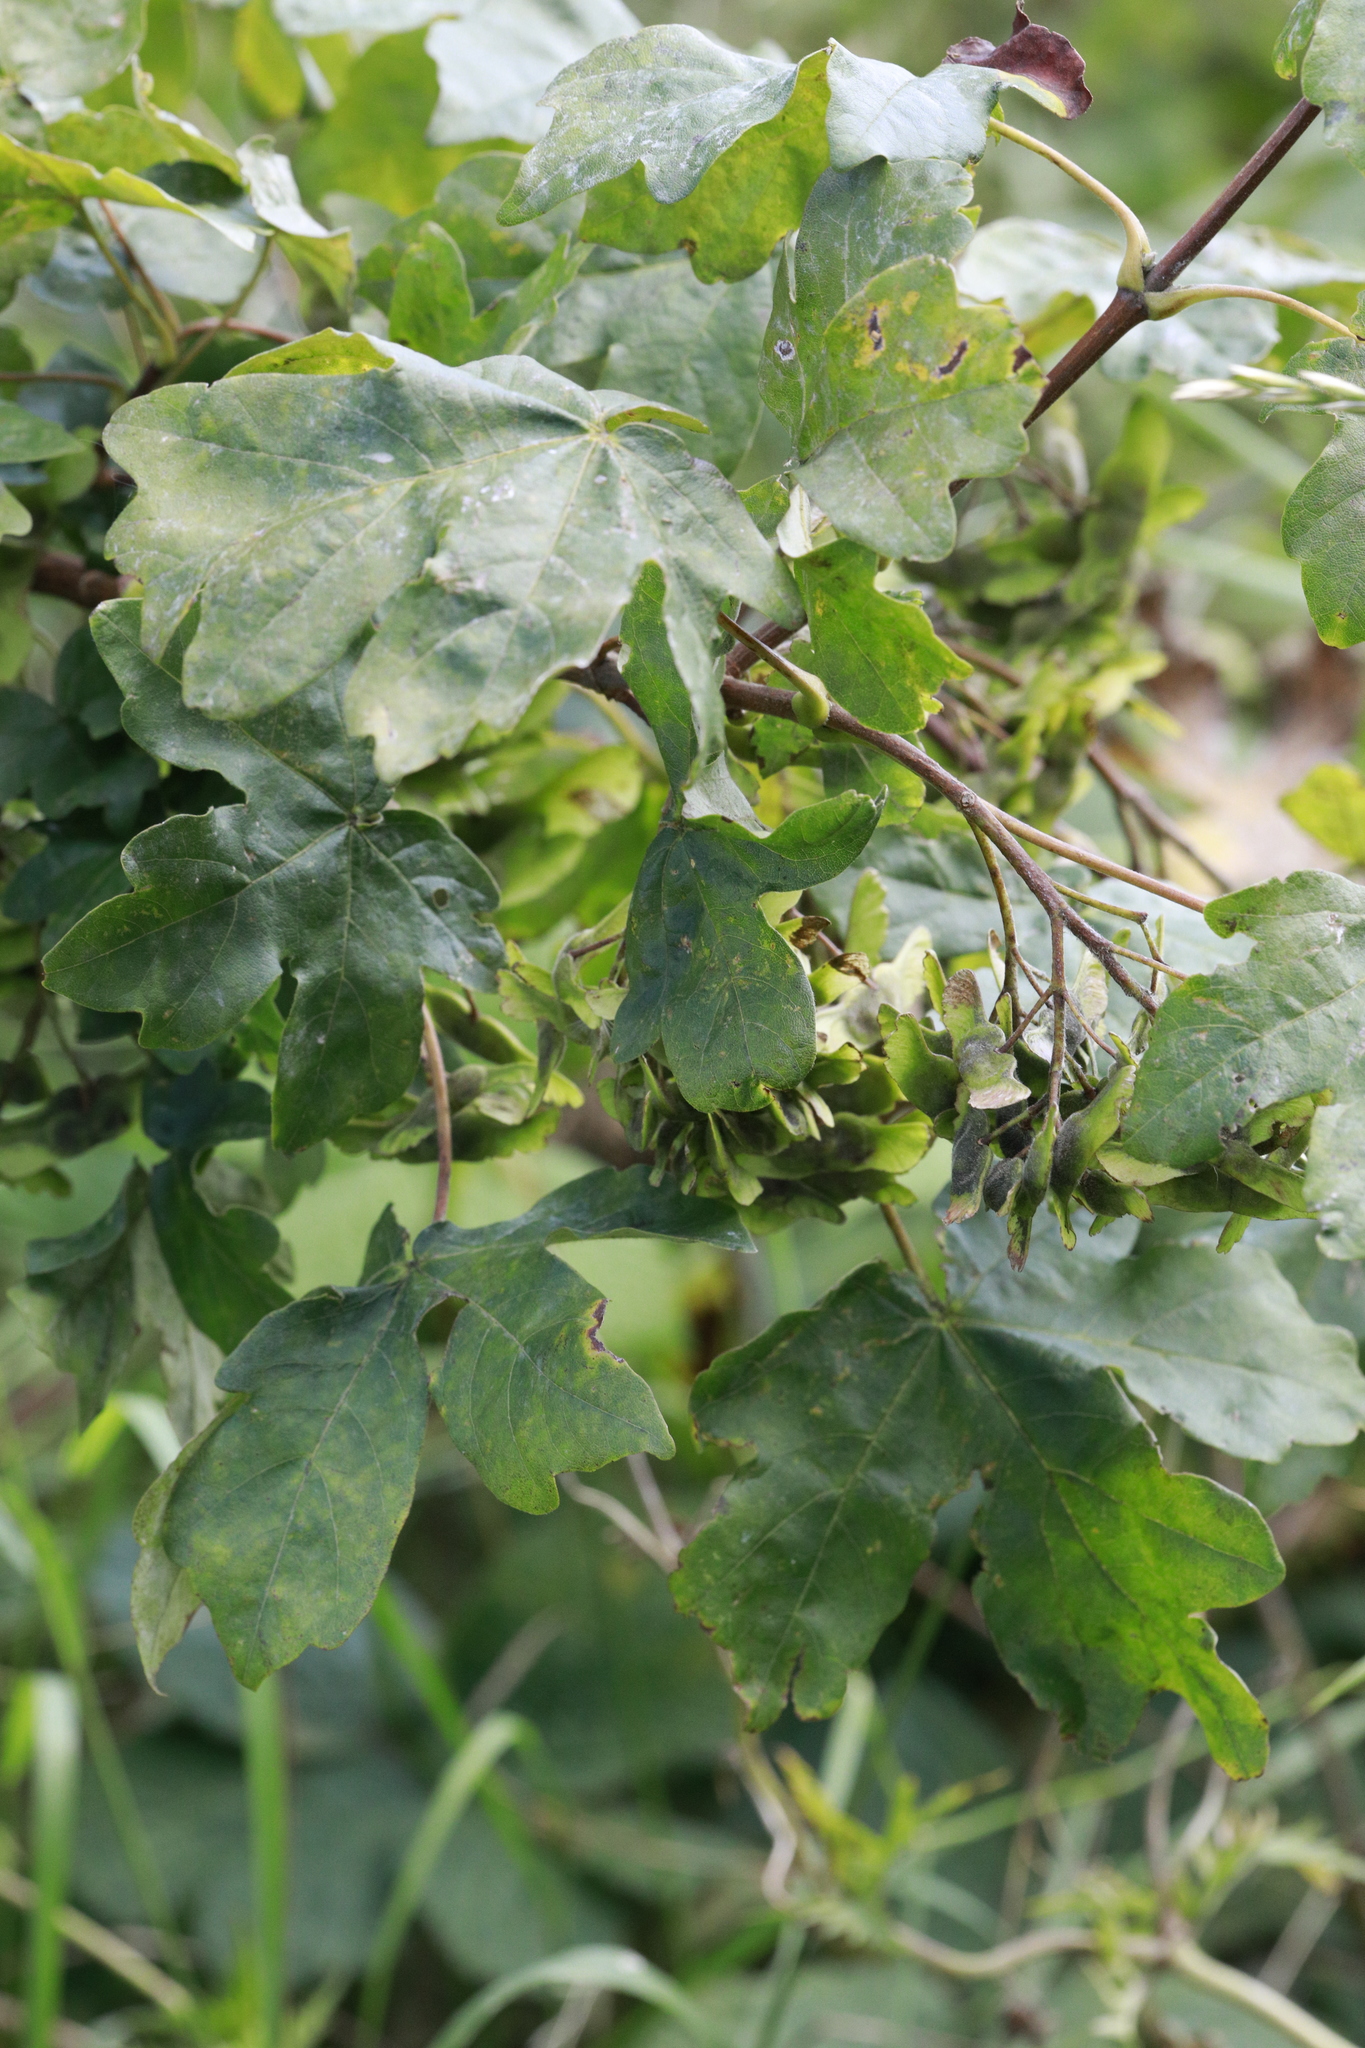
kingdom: Plantae
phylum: Tracheophyta
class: Magnoliopsida
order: Sapindales
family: Sapindaceae
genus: Acer
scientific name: Acer campestre
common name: Field maple
